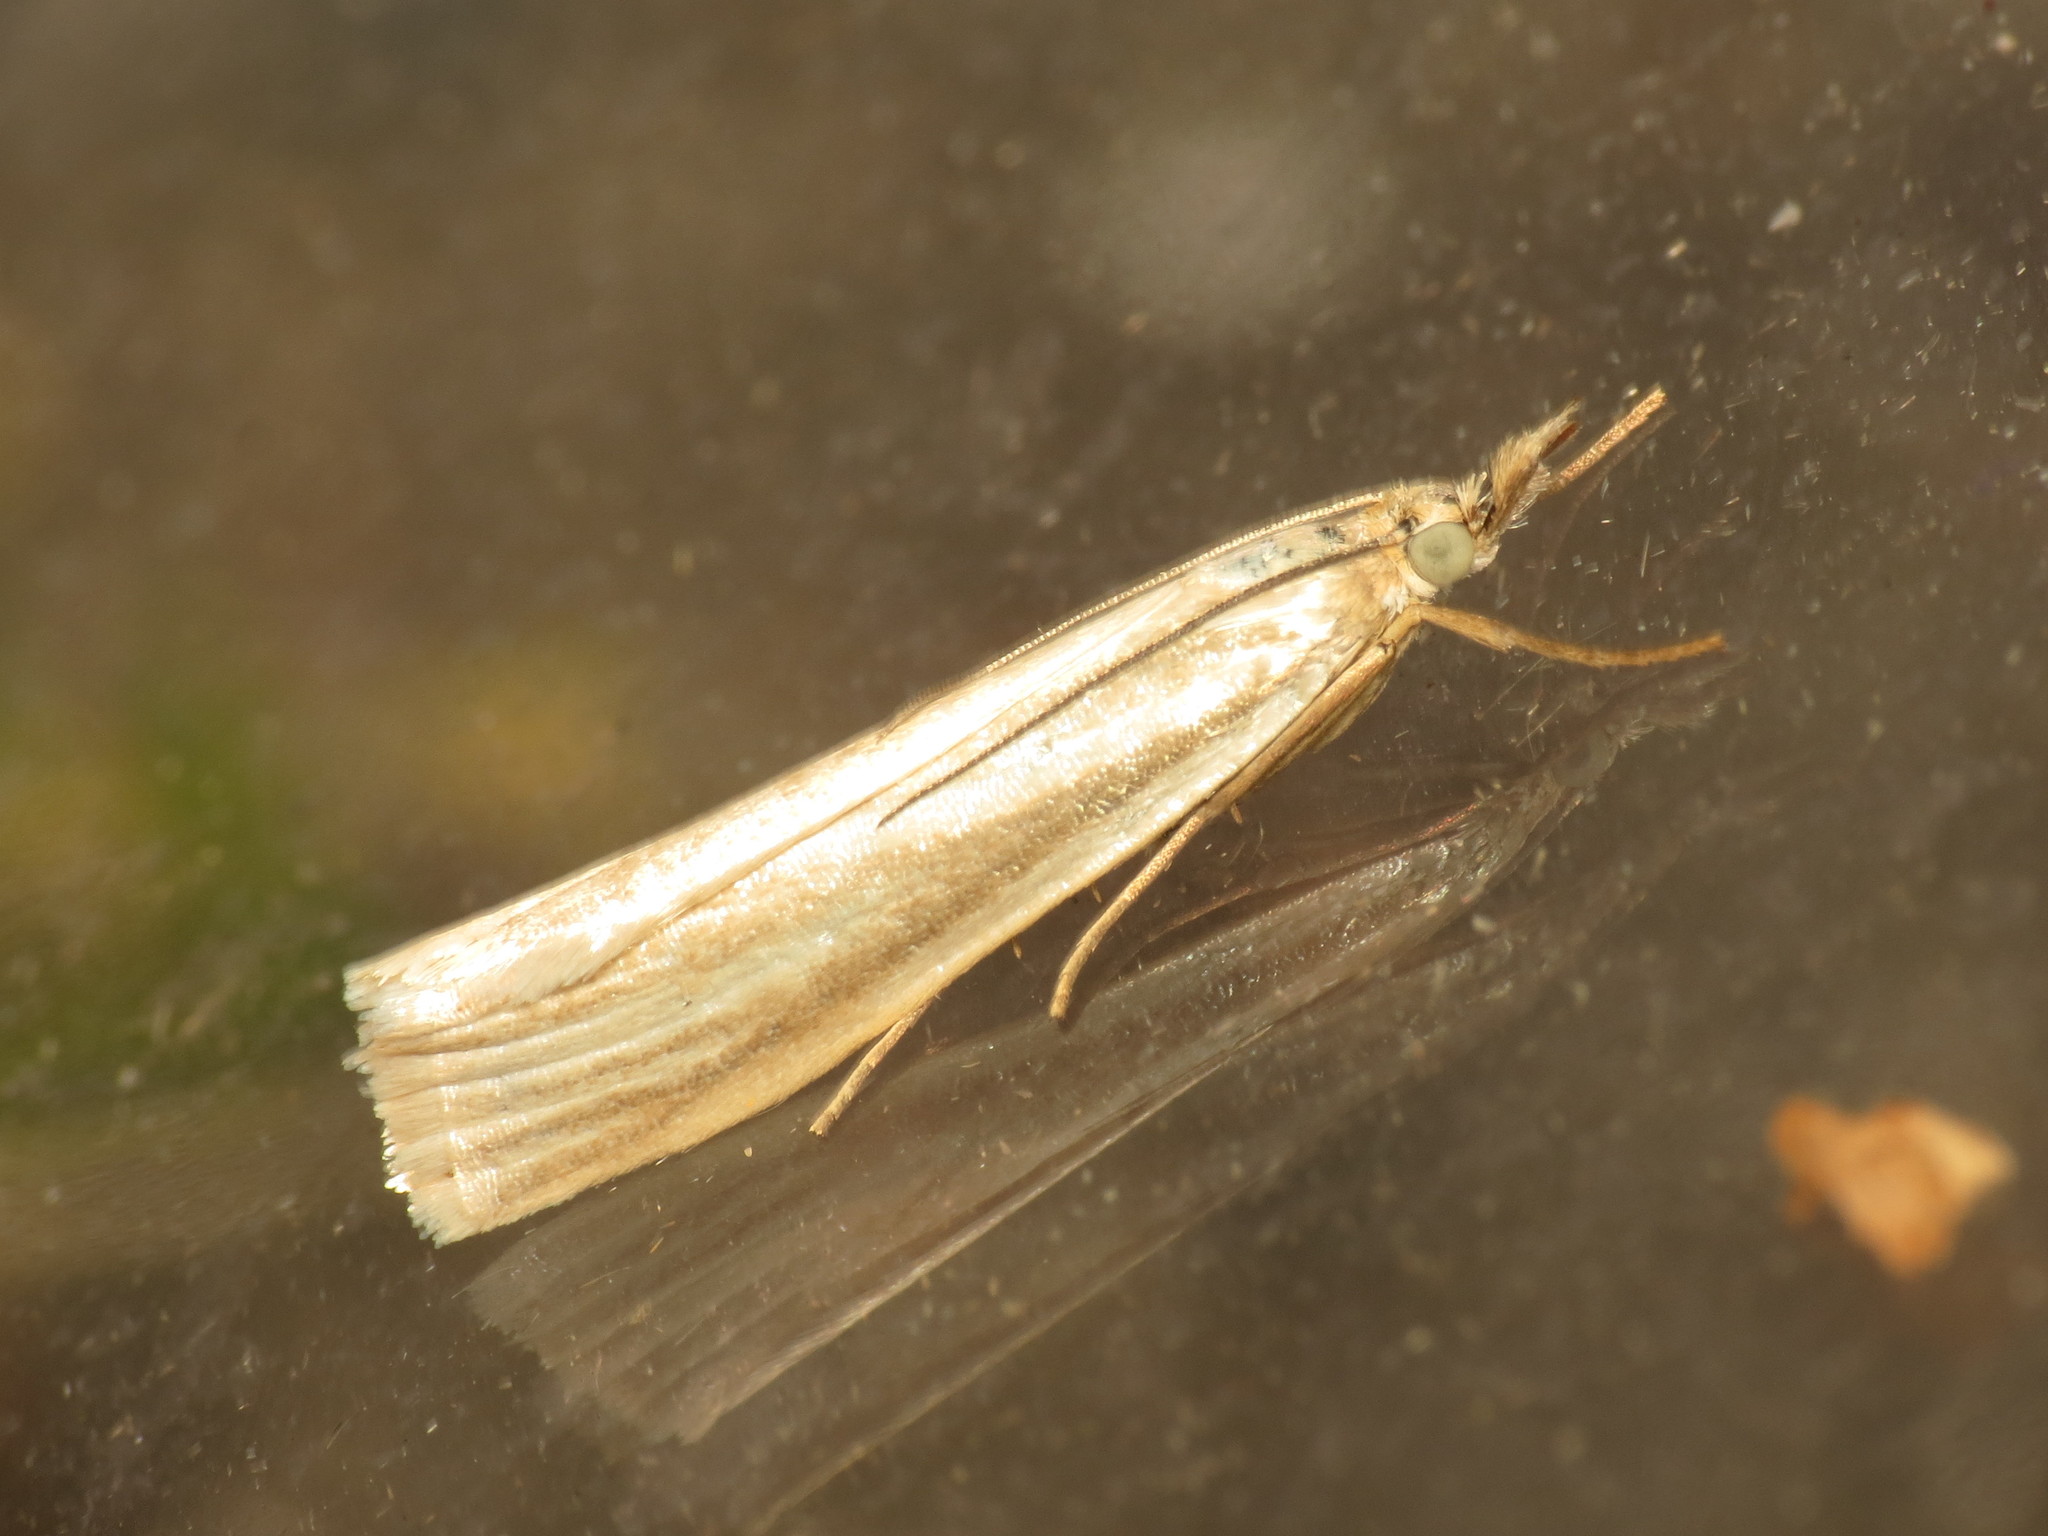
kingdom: Animalia
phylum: Arthropoda
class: Insecta
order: Lepidoptera
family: Crambidae
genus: Crambus
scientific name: Crambus perlellus
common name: Yellow satin veneer
